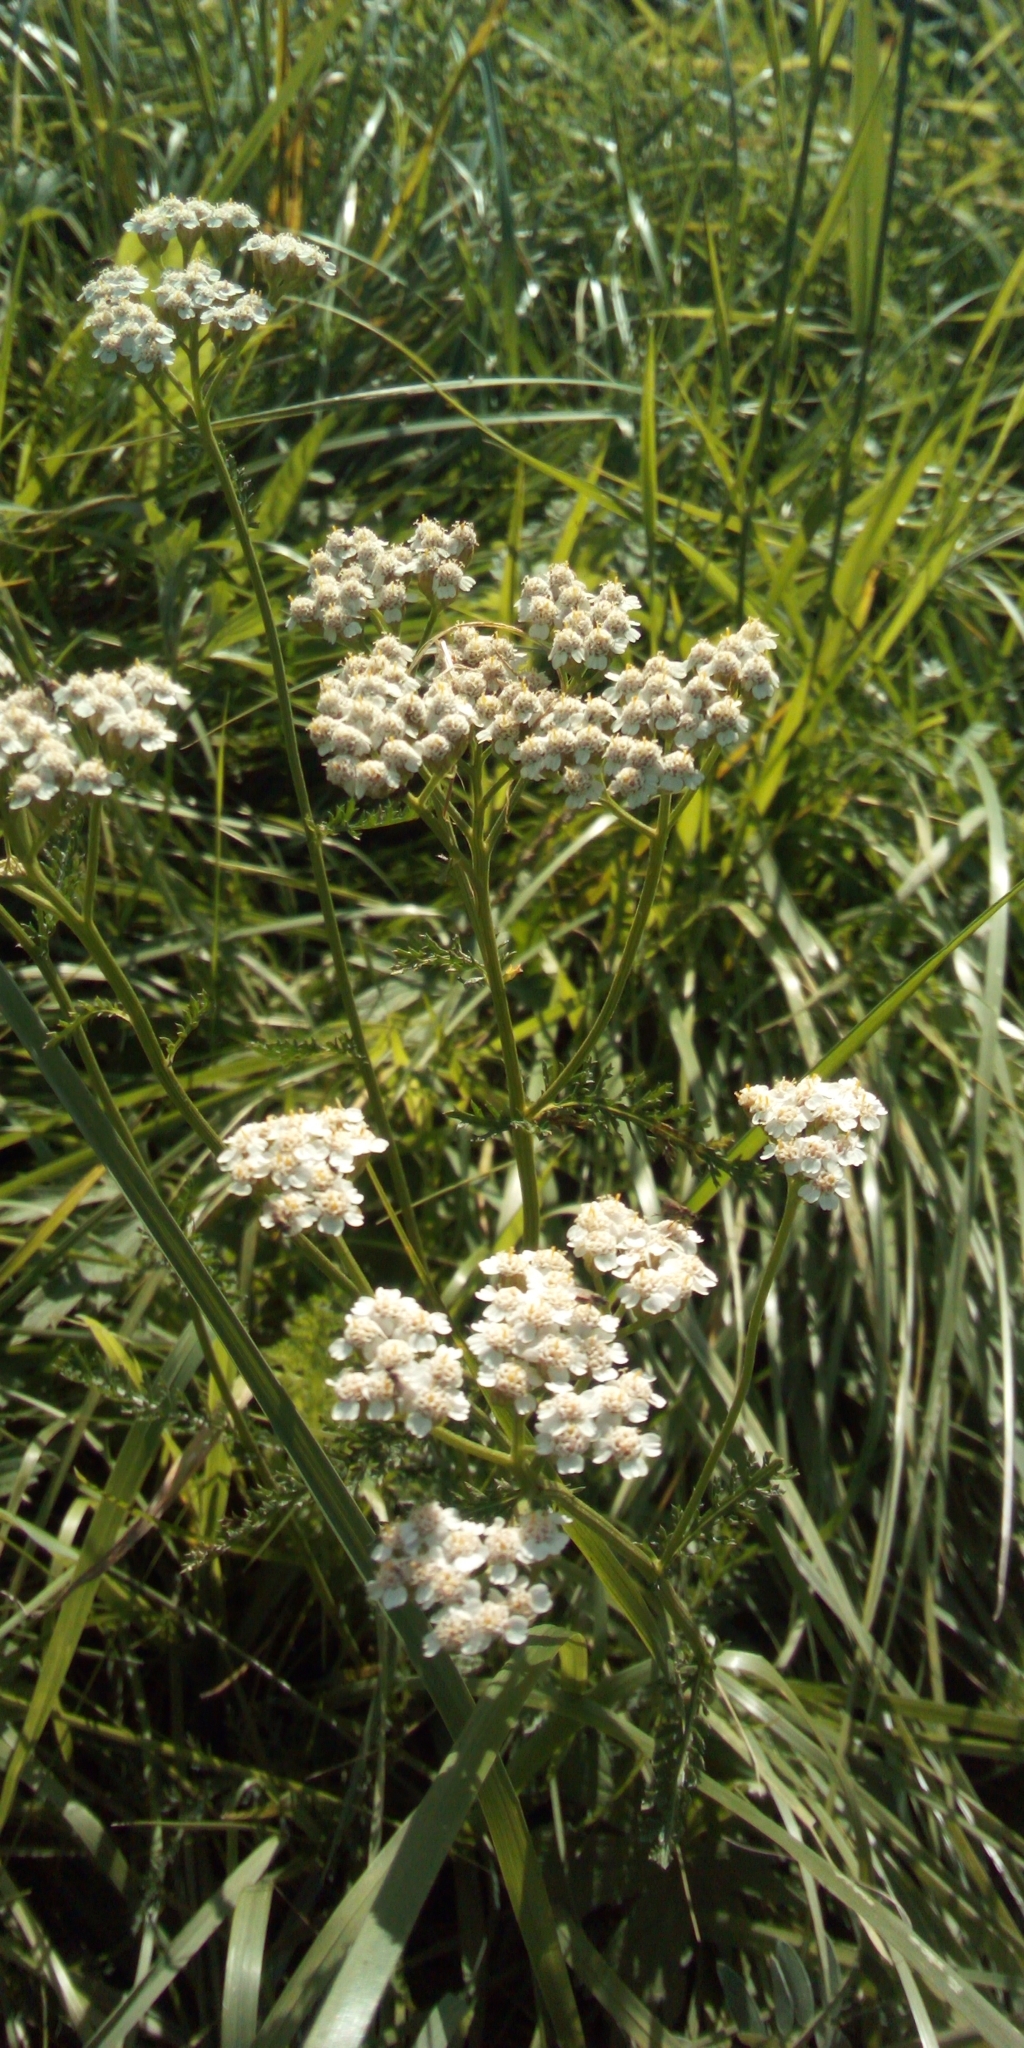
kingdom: Plantae
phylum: Tracheophyta
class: Magnoliopsida
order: Asterales
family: Asteraceae
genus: Achillea
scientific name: Achillea millefolium
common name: Yarrow
